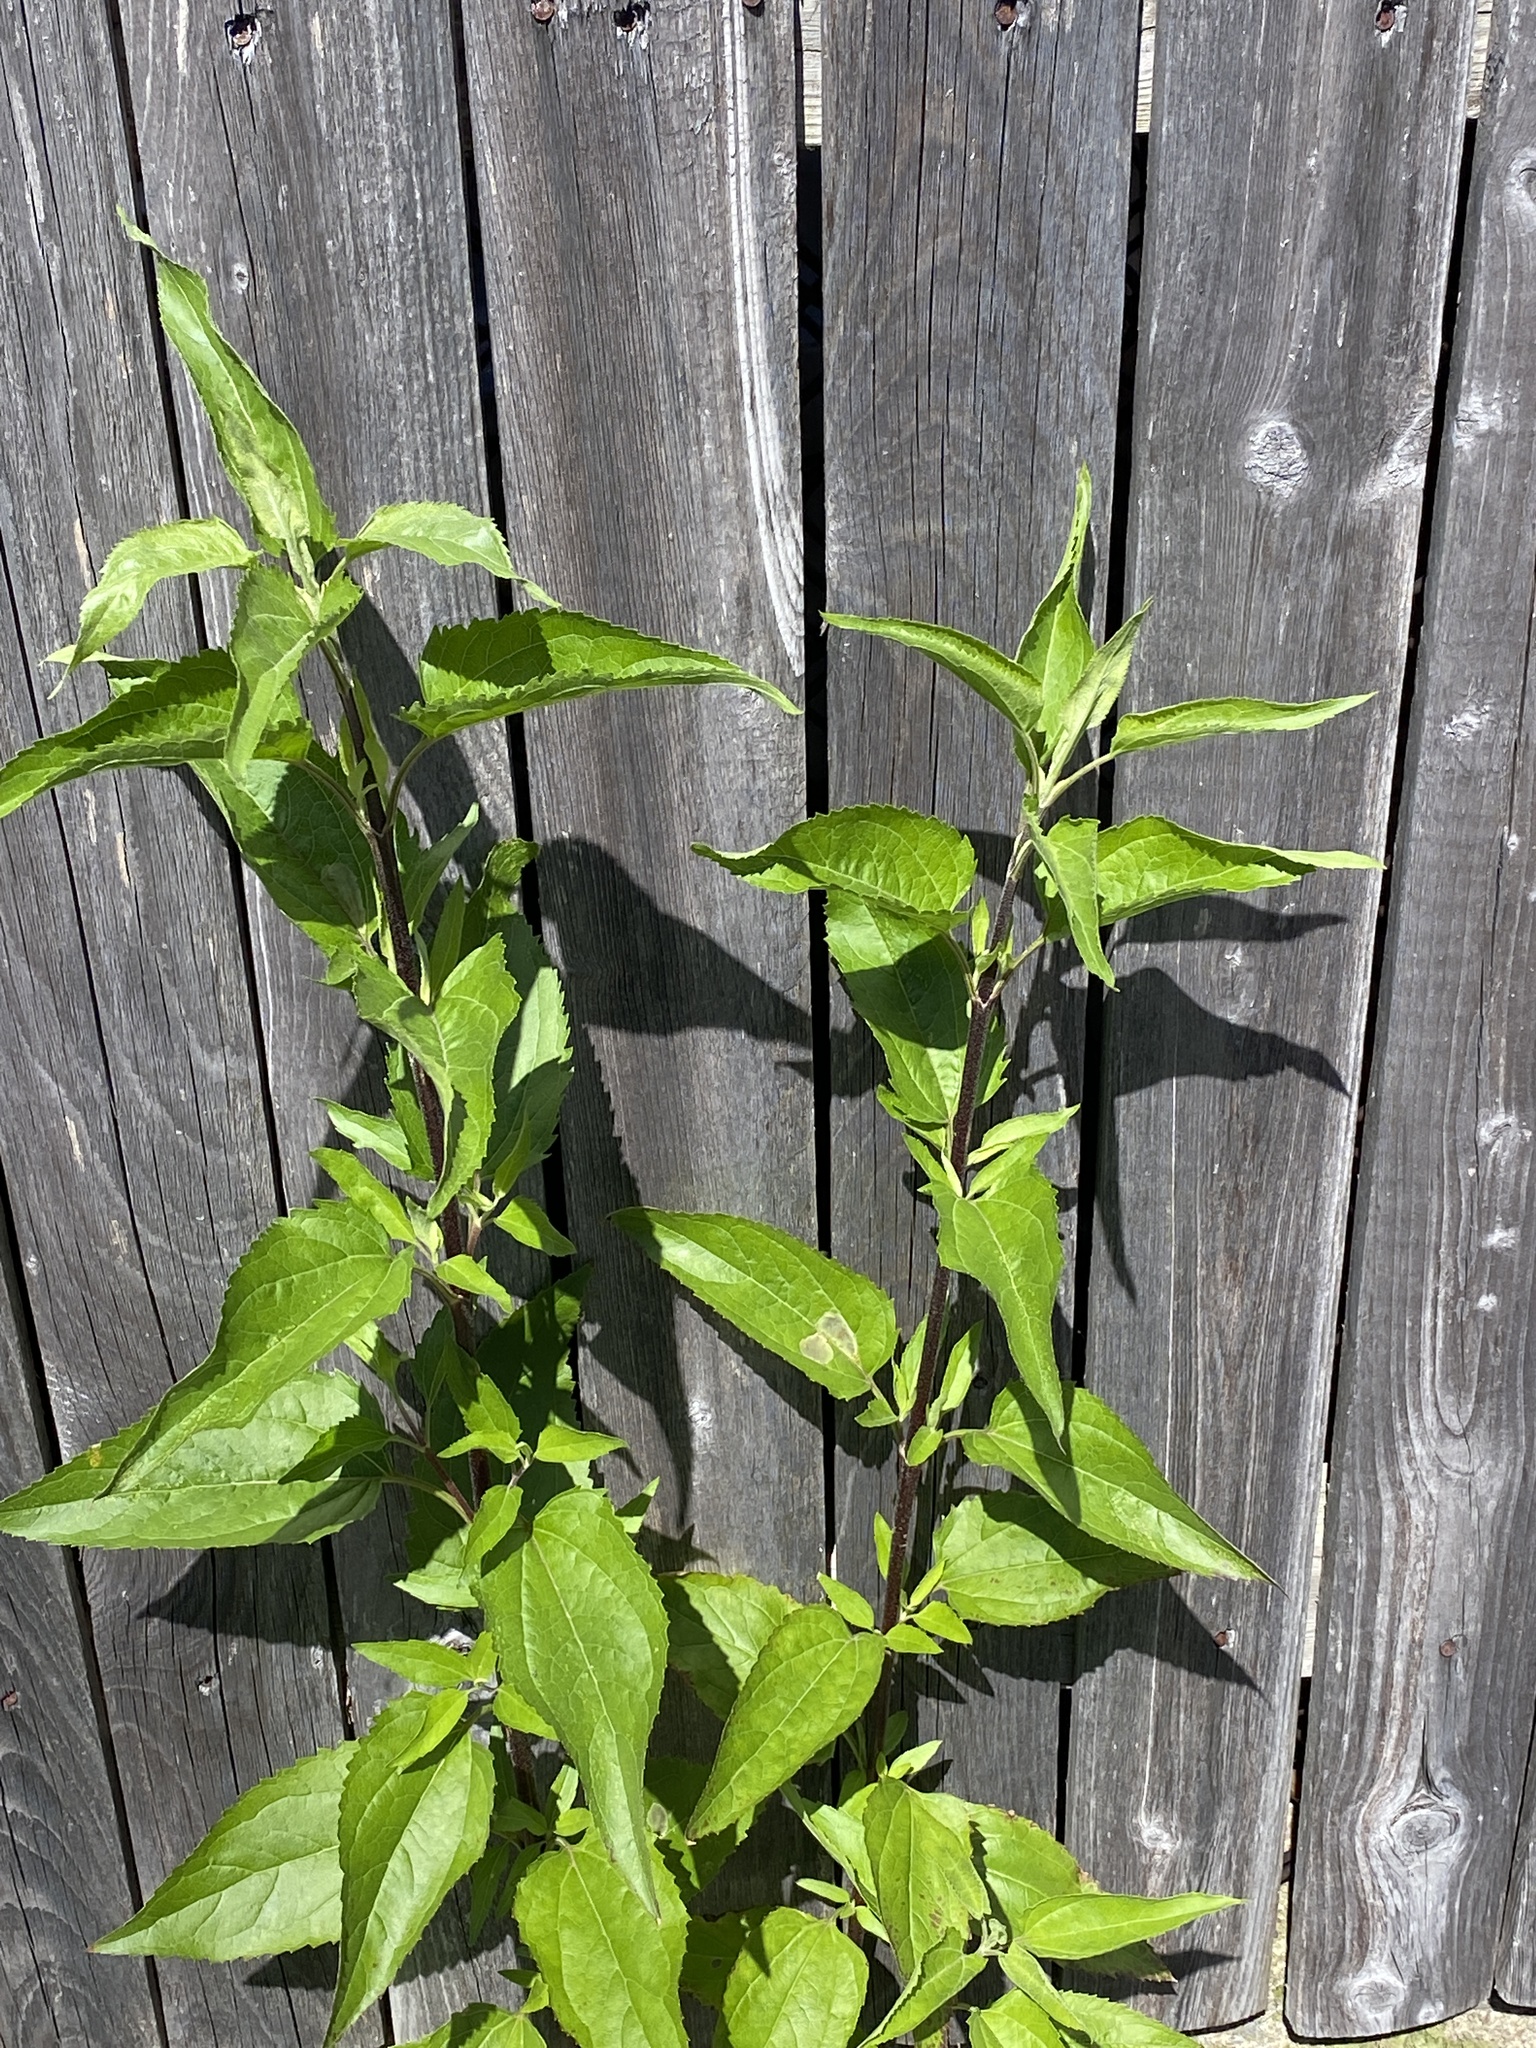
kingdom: Plantae
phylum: Tracheophyta
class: Magnoliopsida
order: Asterales
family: Asteraceae
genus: Eupatorium
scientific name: Eupatorium serotinum
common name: Late boneset
